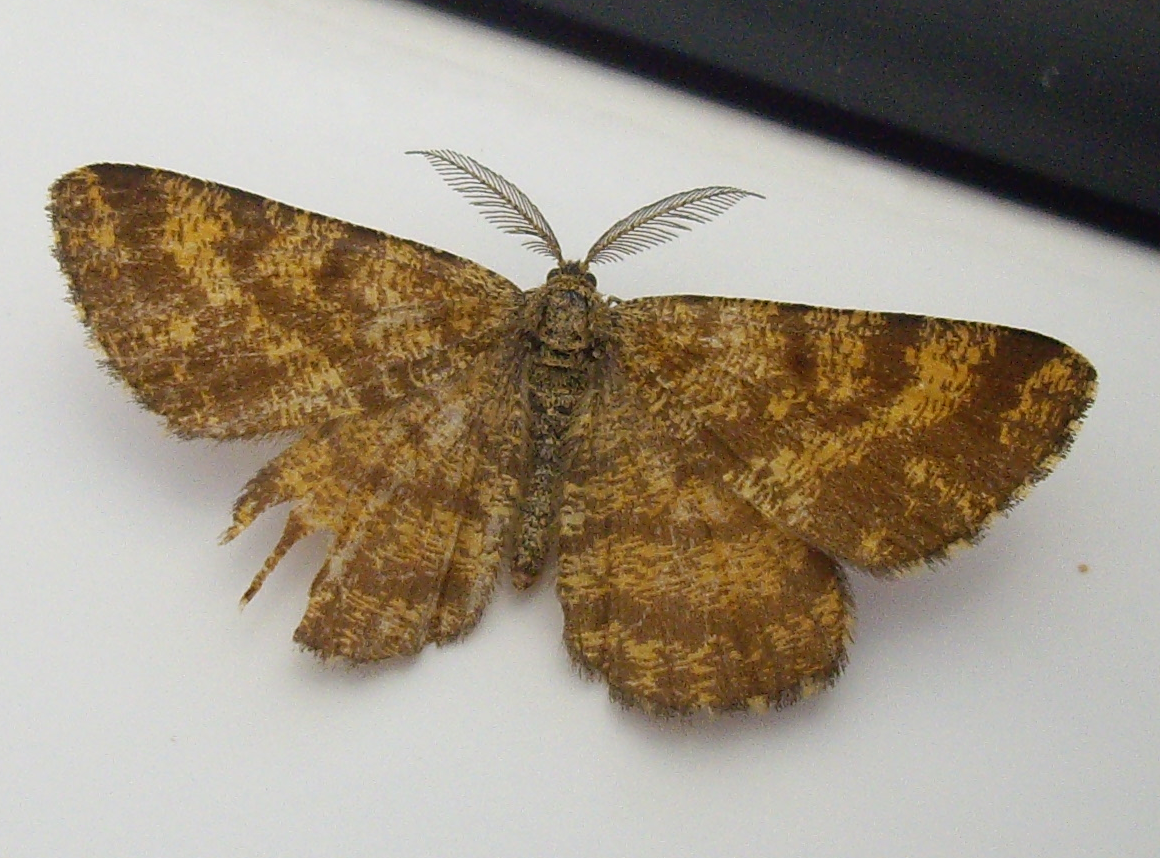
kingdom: Animalia
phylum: Arthropoda
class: Insecta
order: Lepidoptera
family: Geometridae
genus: Ematurga
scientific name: Ematurga atomaria
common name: Common heath
